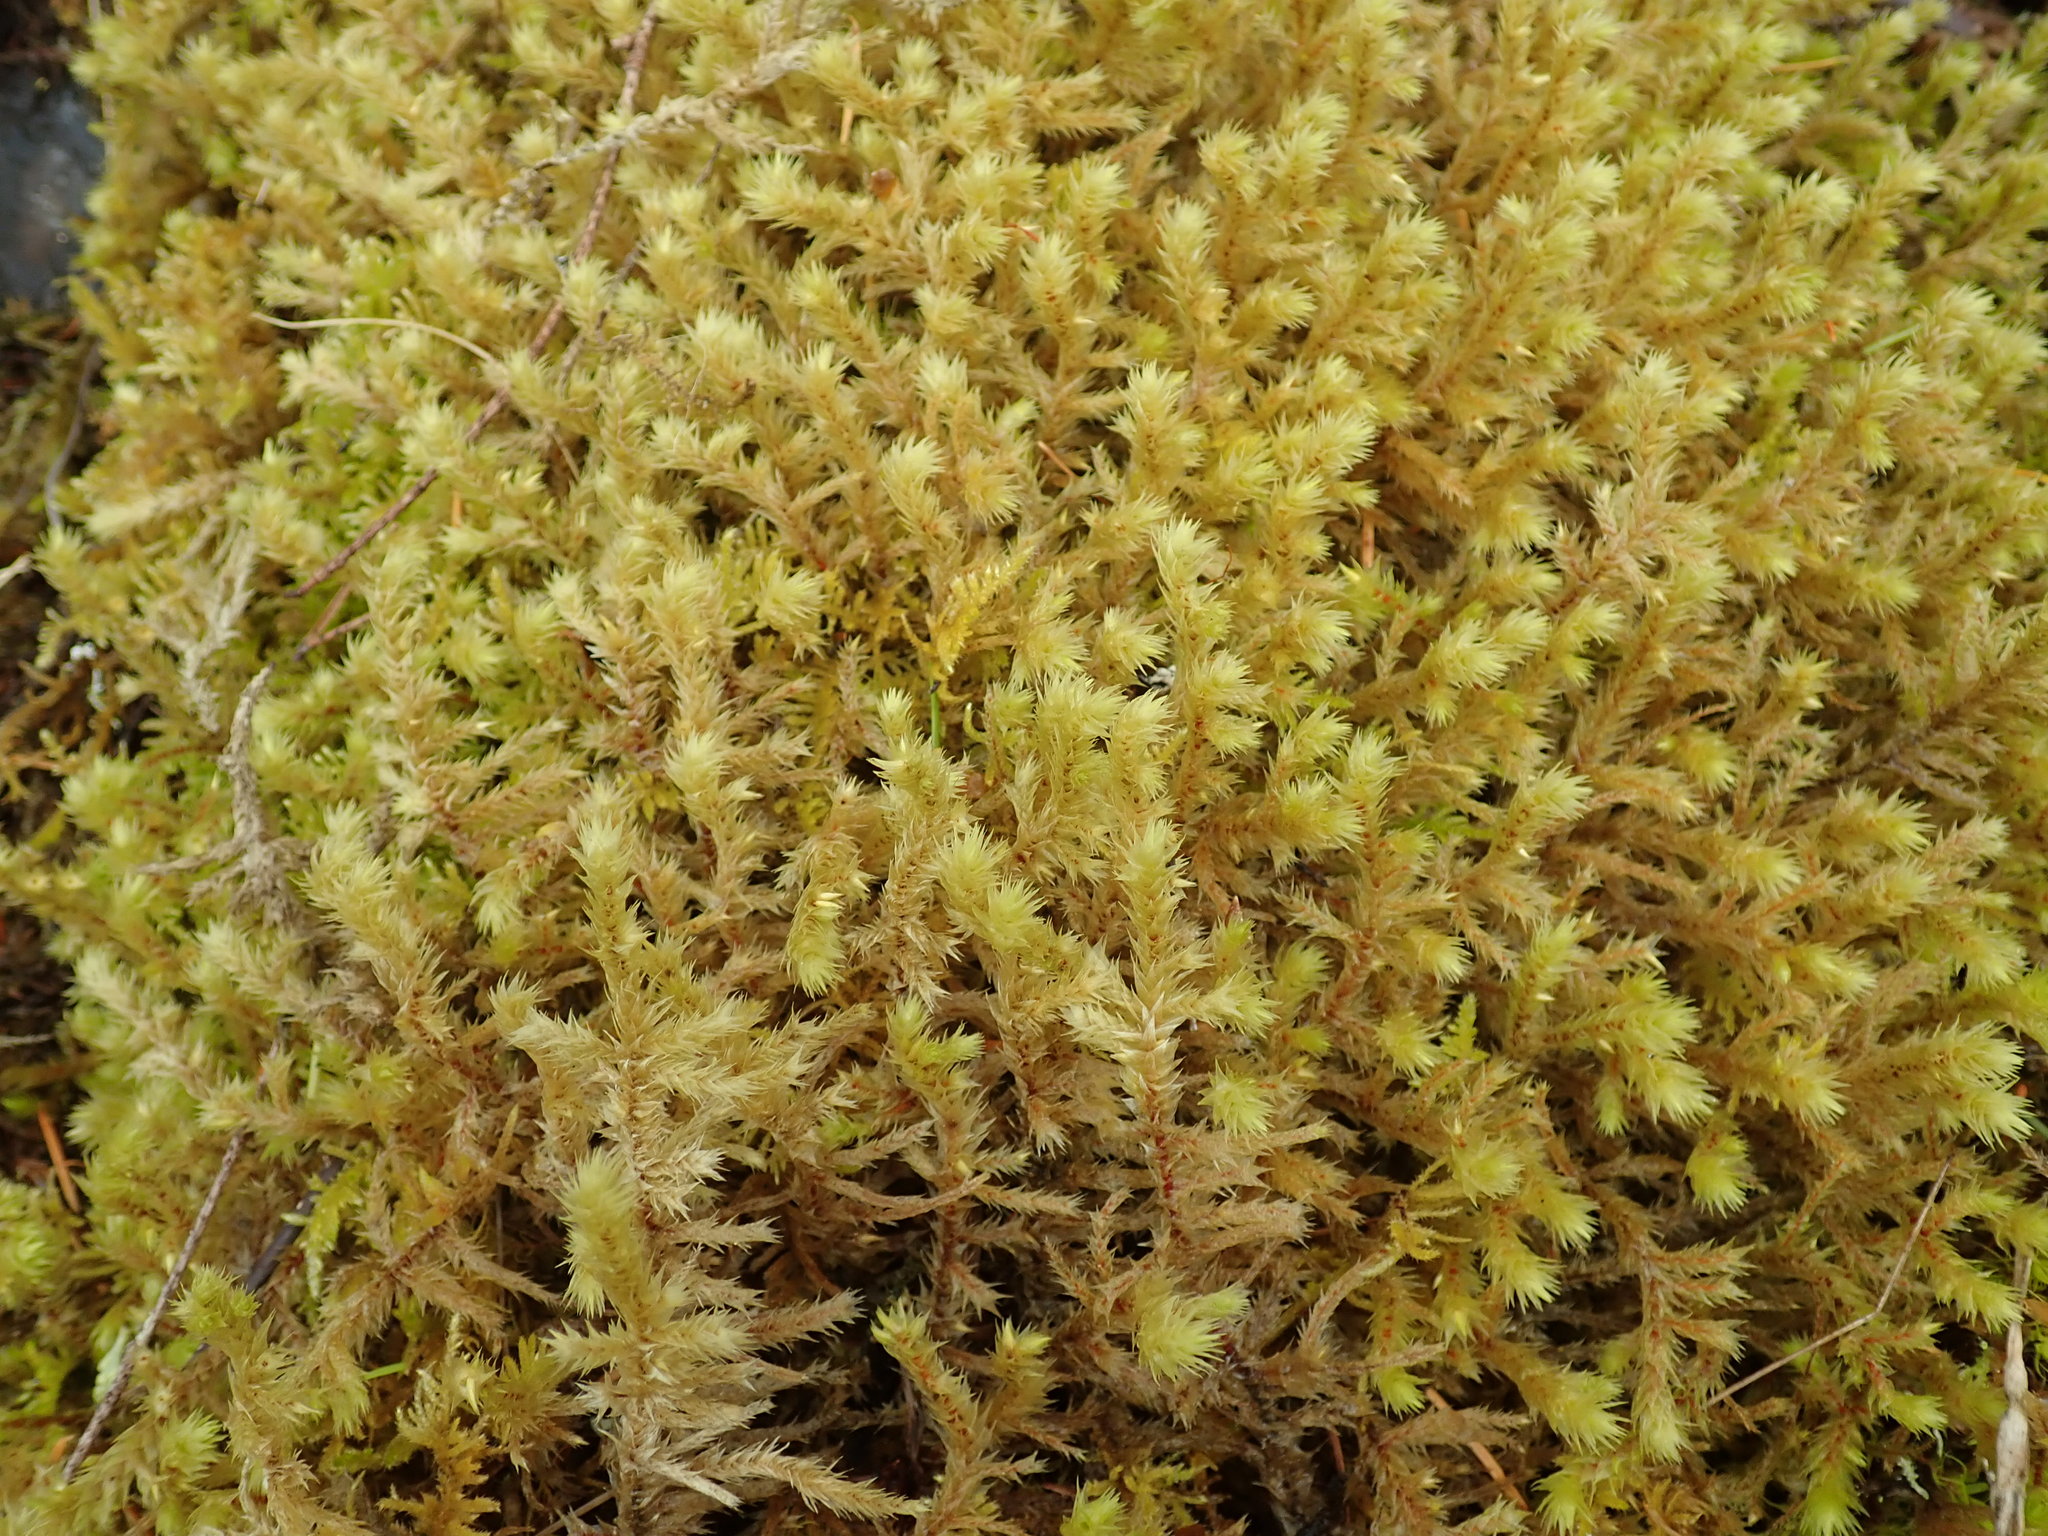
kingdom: Plantae
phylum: Bryophyta
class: Bryopsida
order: Hypnales
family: Hylocomiaceae
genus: Hylocomiadelphus
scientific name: Hylocomiadelphus triquetrus
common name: Rough goose neck moss
